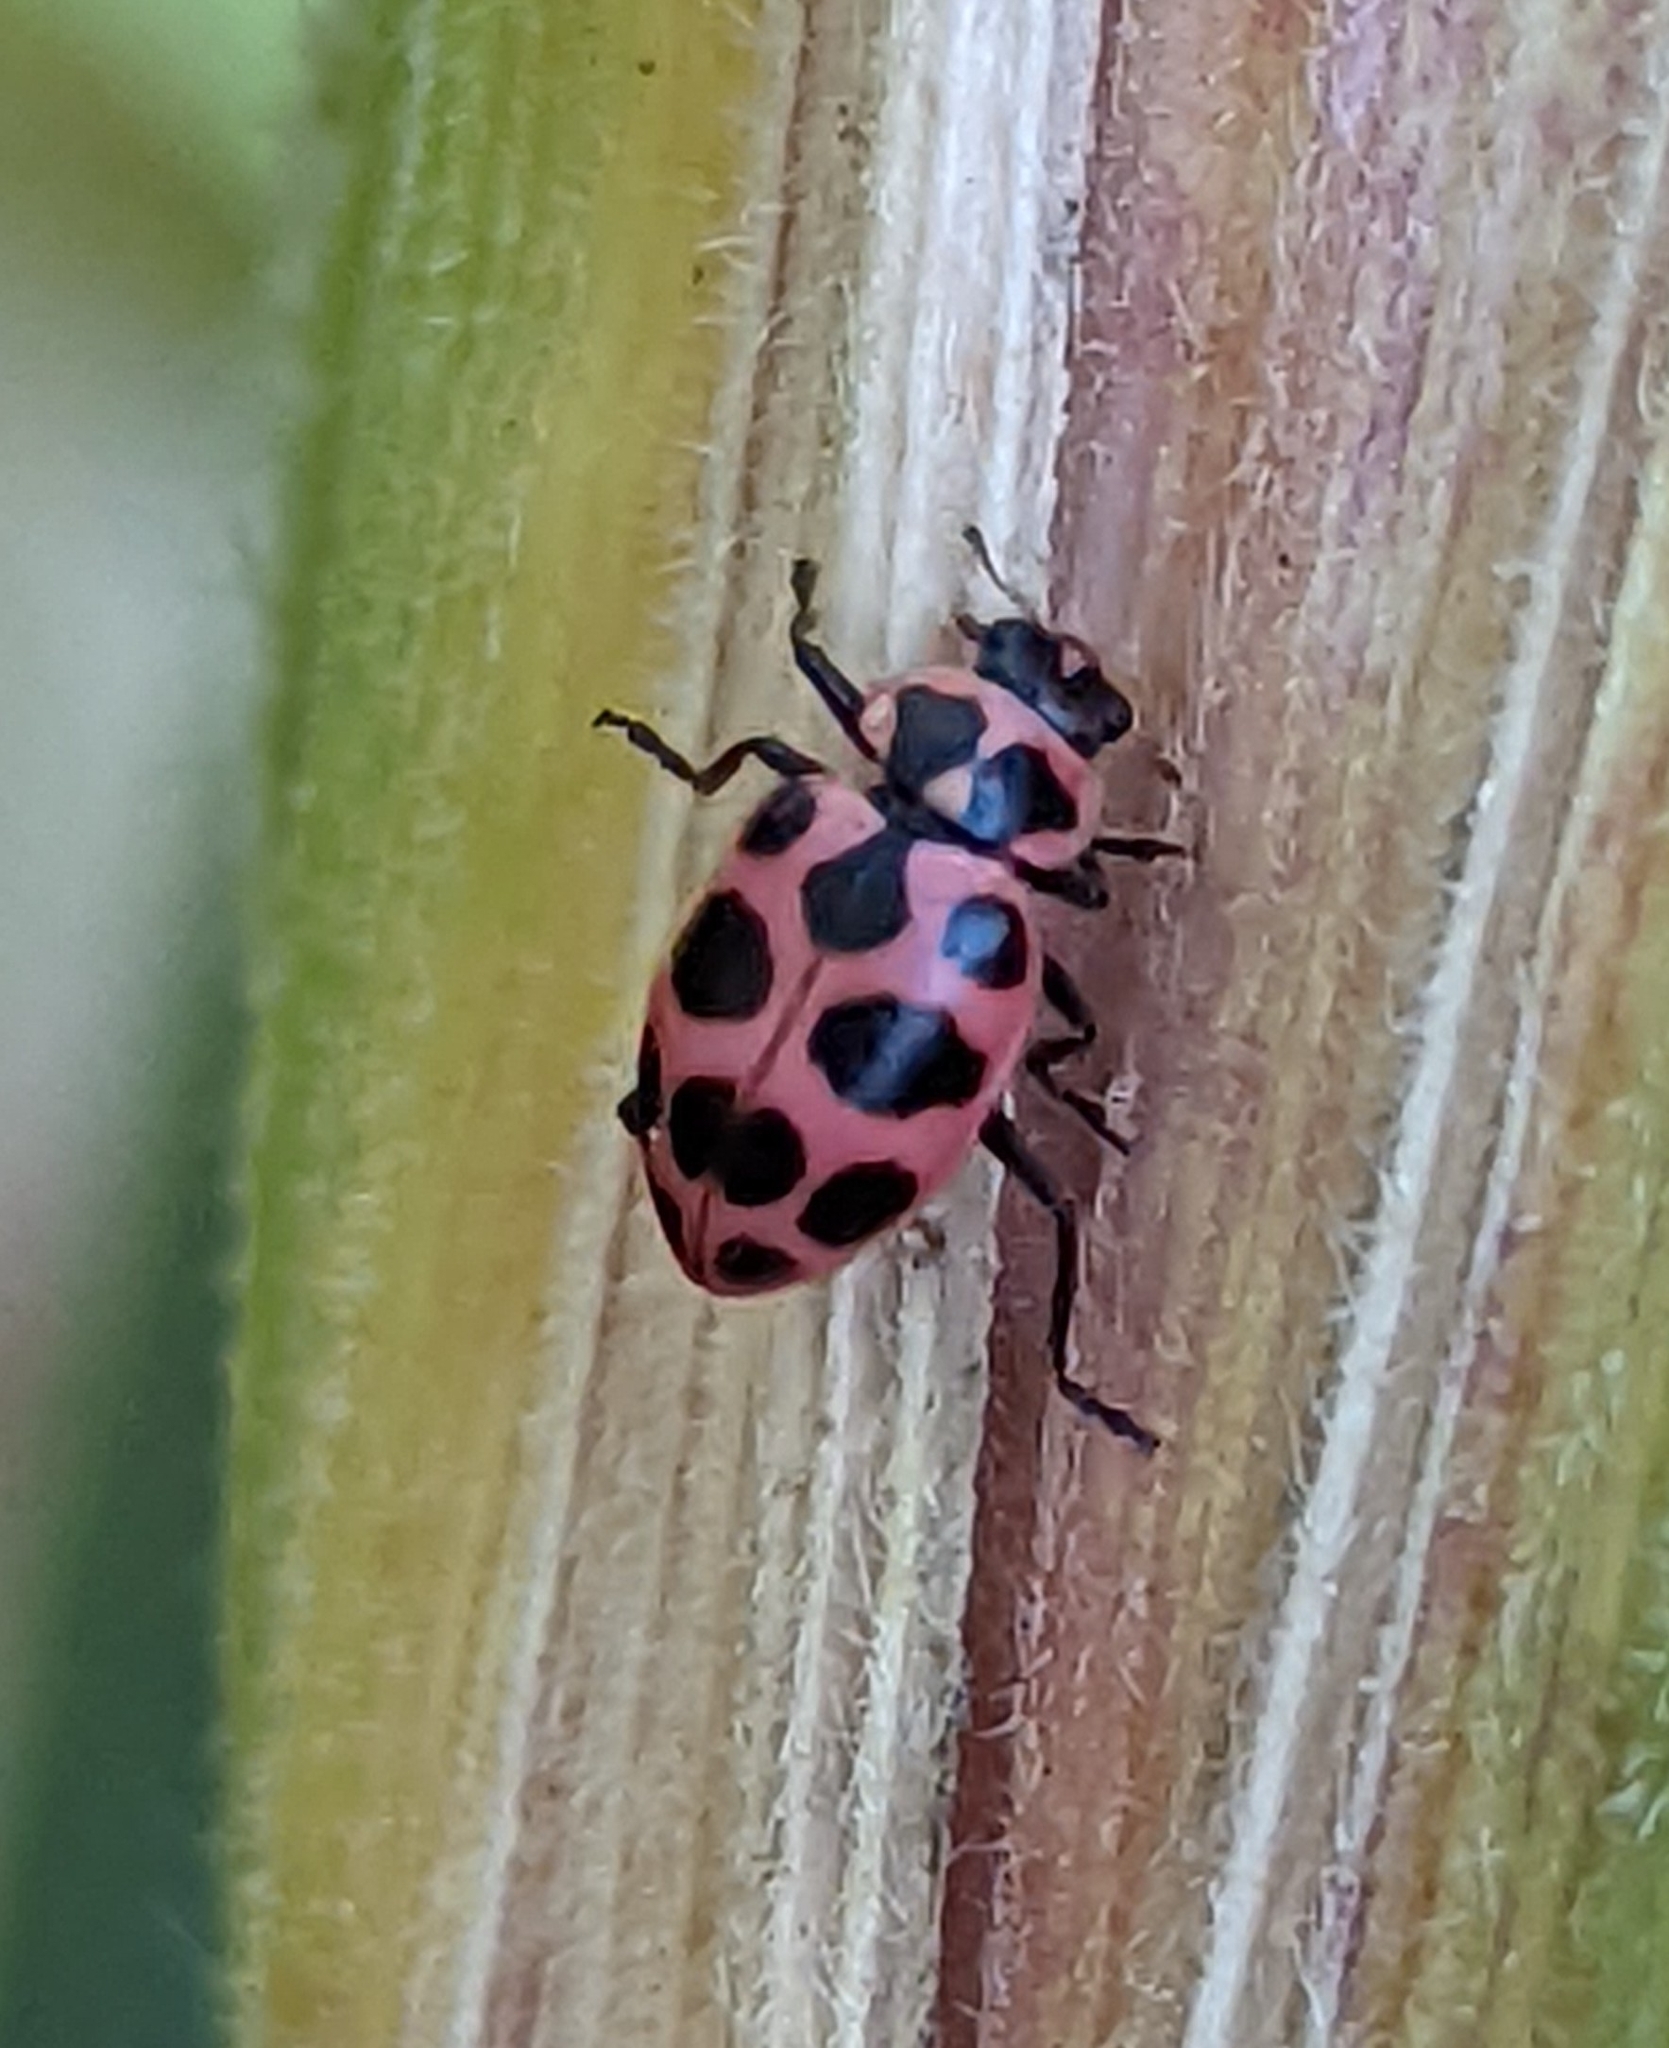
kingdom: Animalia
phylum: Arthropoda
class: Insecta
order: Coleoptera
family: Coccinellidae
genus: Coleomegilla
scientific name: Coleomegilla maculata
